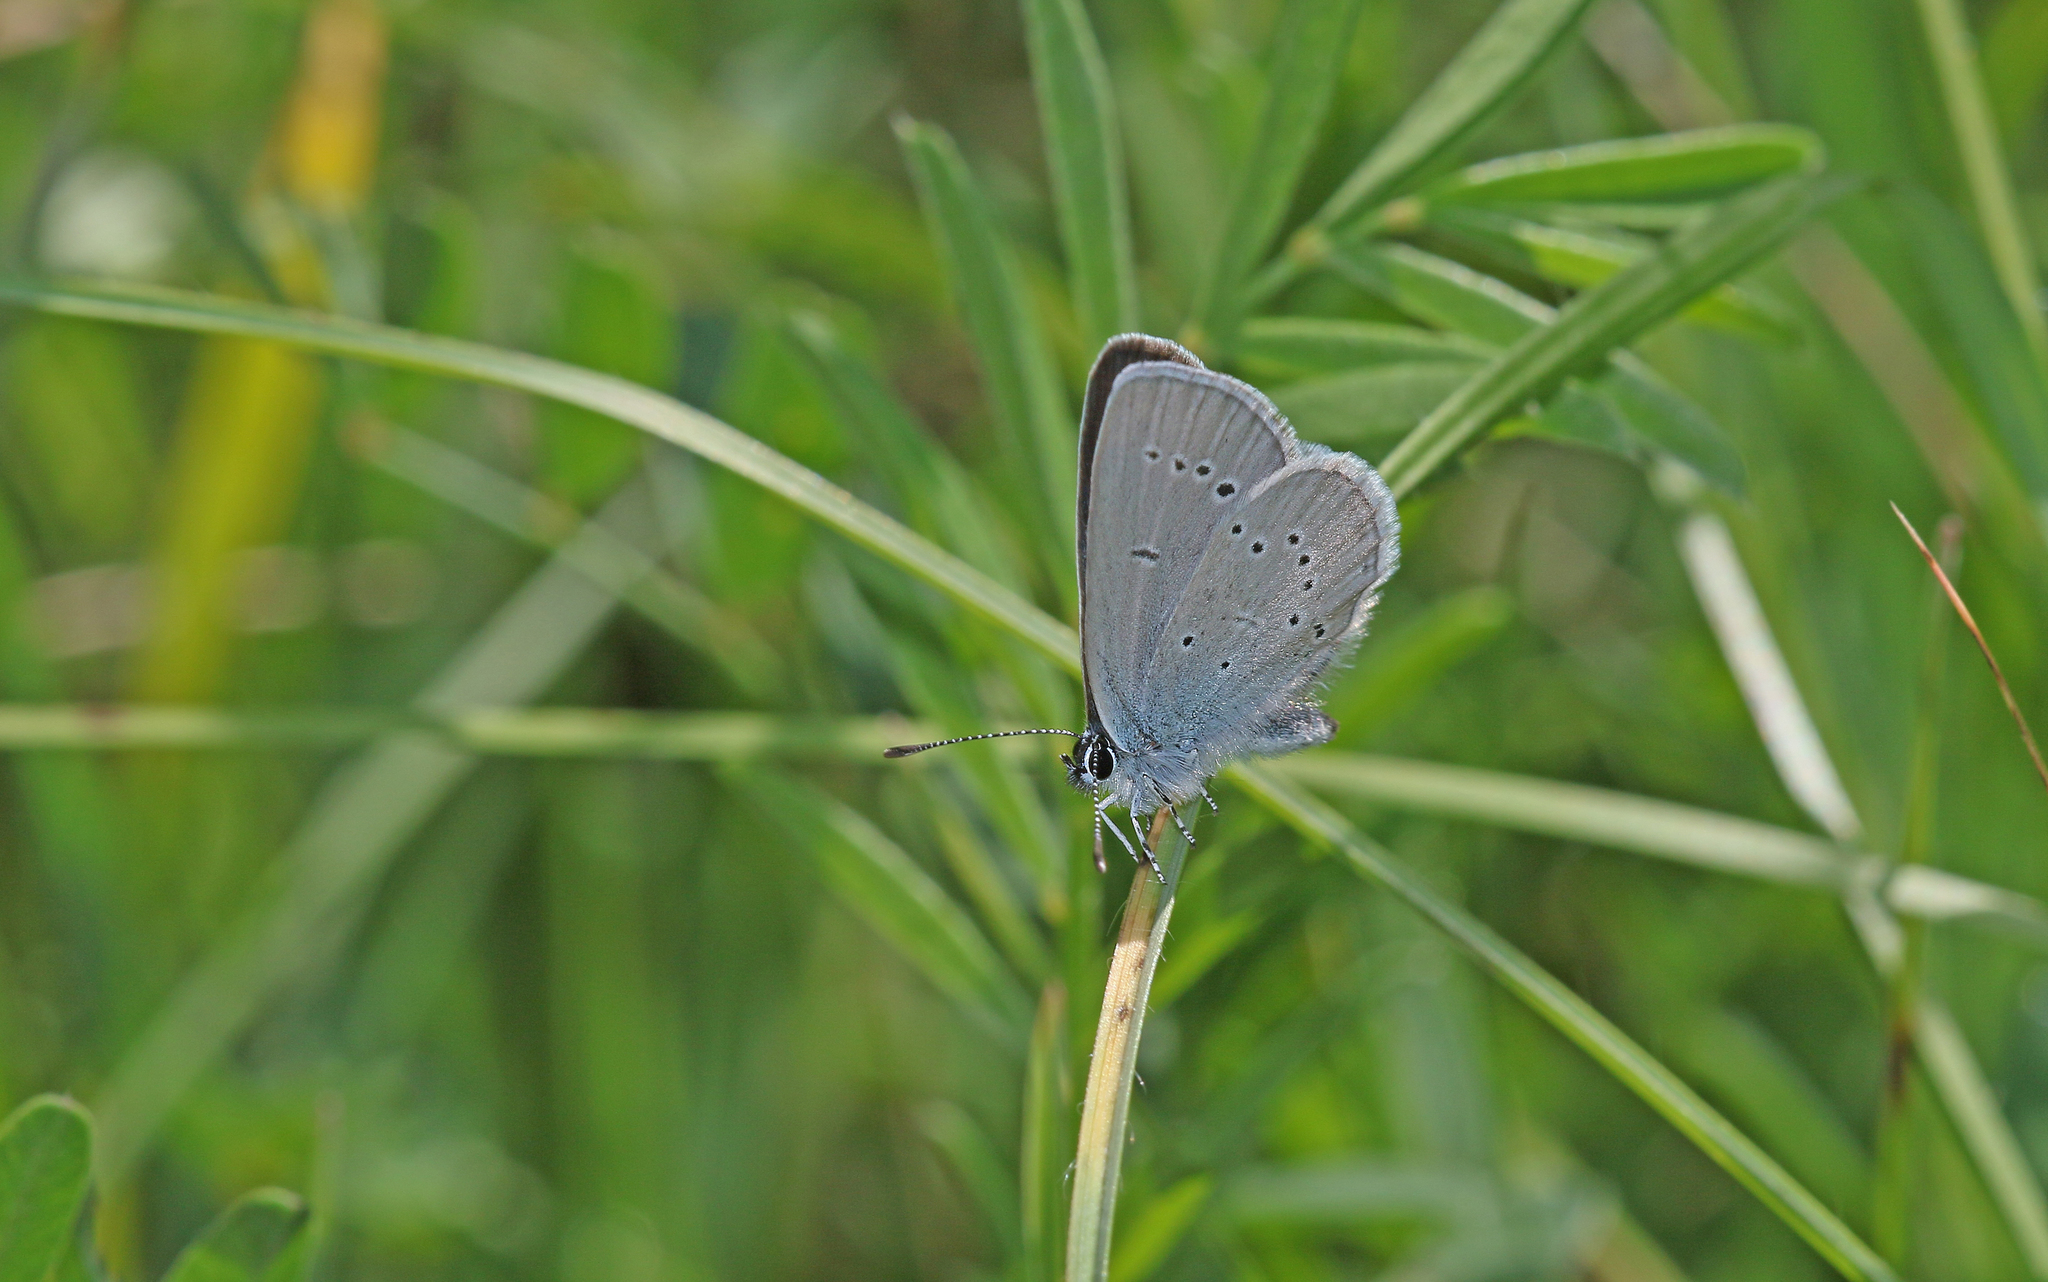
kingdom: Animalia
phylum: Arthropoda
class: Insecta
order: Lepidoptera
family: Lycaenidae
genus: Cupido
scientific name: Cupido minimus
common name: Small blue
